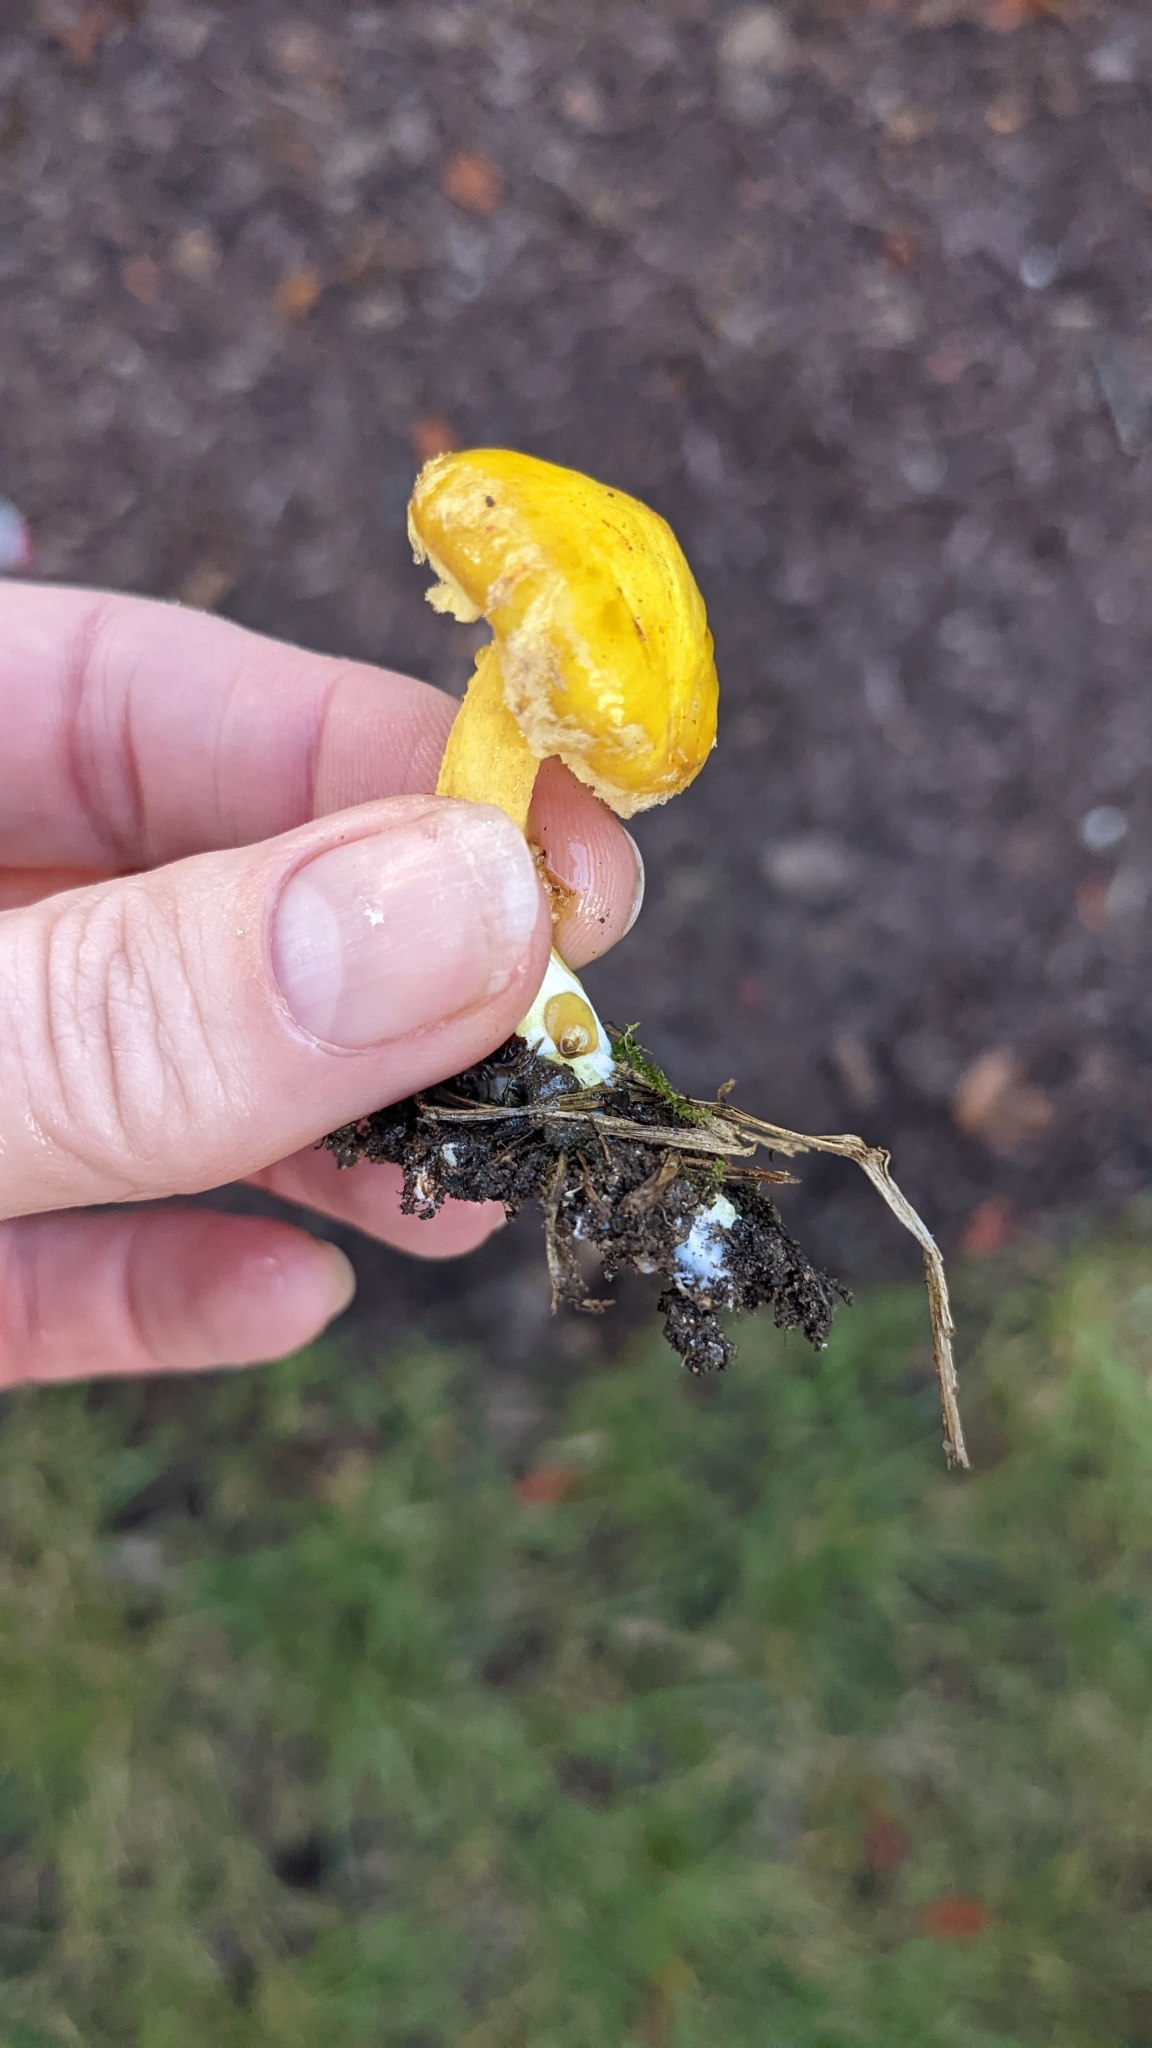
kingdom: Fungi
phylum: Basidiomycota
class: Agaricomycetes
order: Boletales
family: Suillaceae
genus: Suillus
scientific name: Suillus americanus
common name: Chicken fat mushroom
